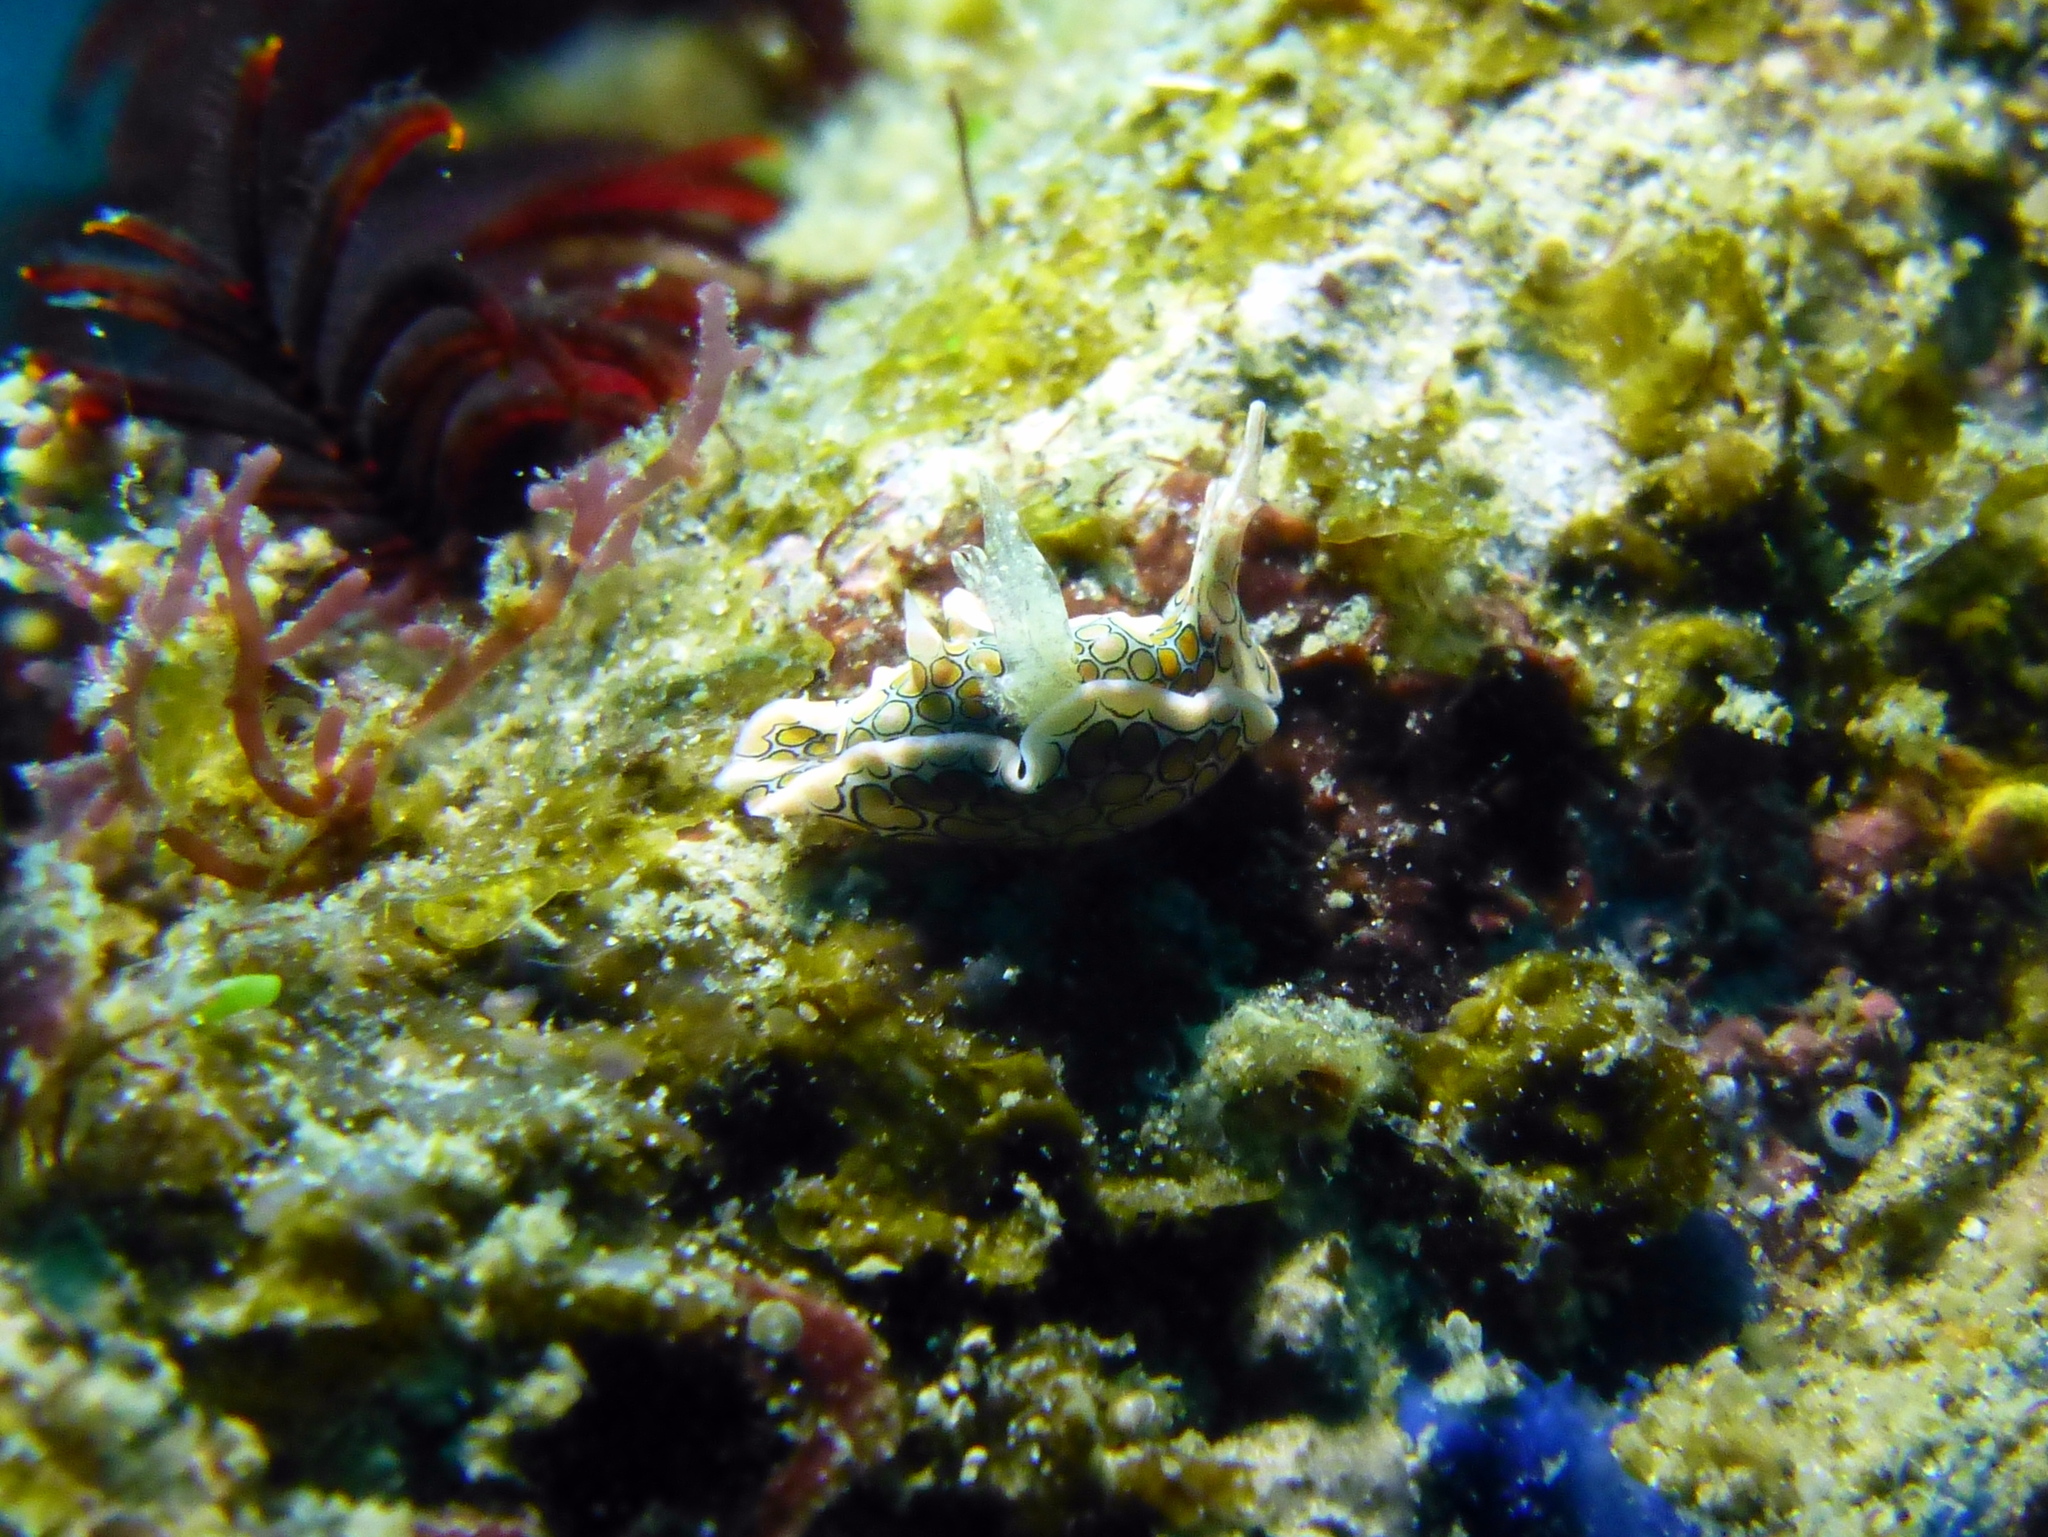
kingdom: Animalia
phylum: Mollusca
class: Gastropoda
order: Cephalaspidea
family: Gastropteridae
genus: Sagaminopteron
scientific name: Sagaminopteron psychedelicum
